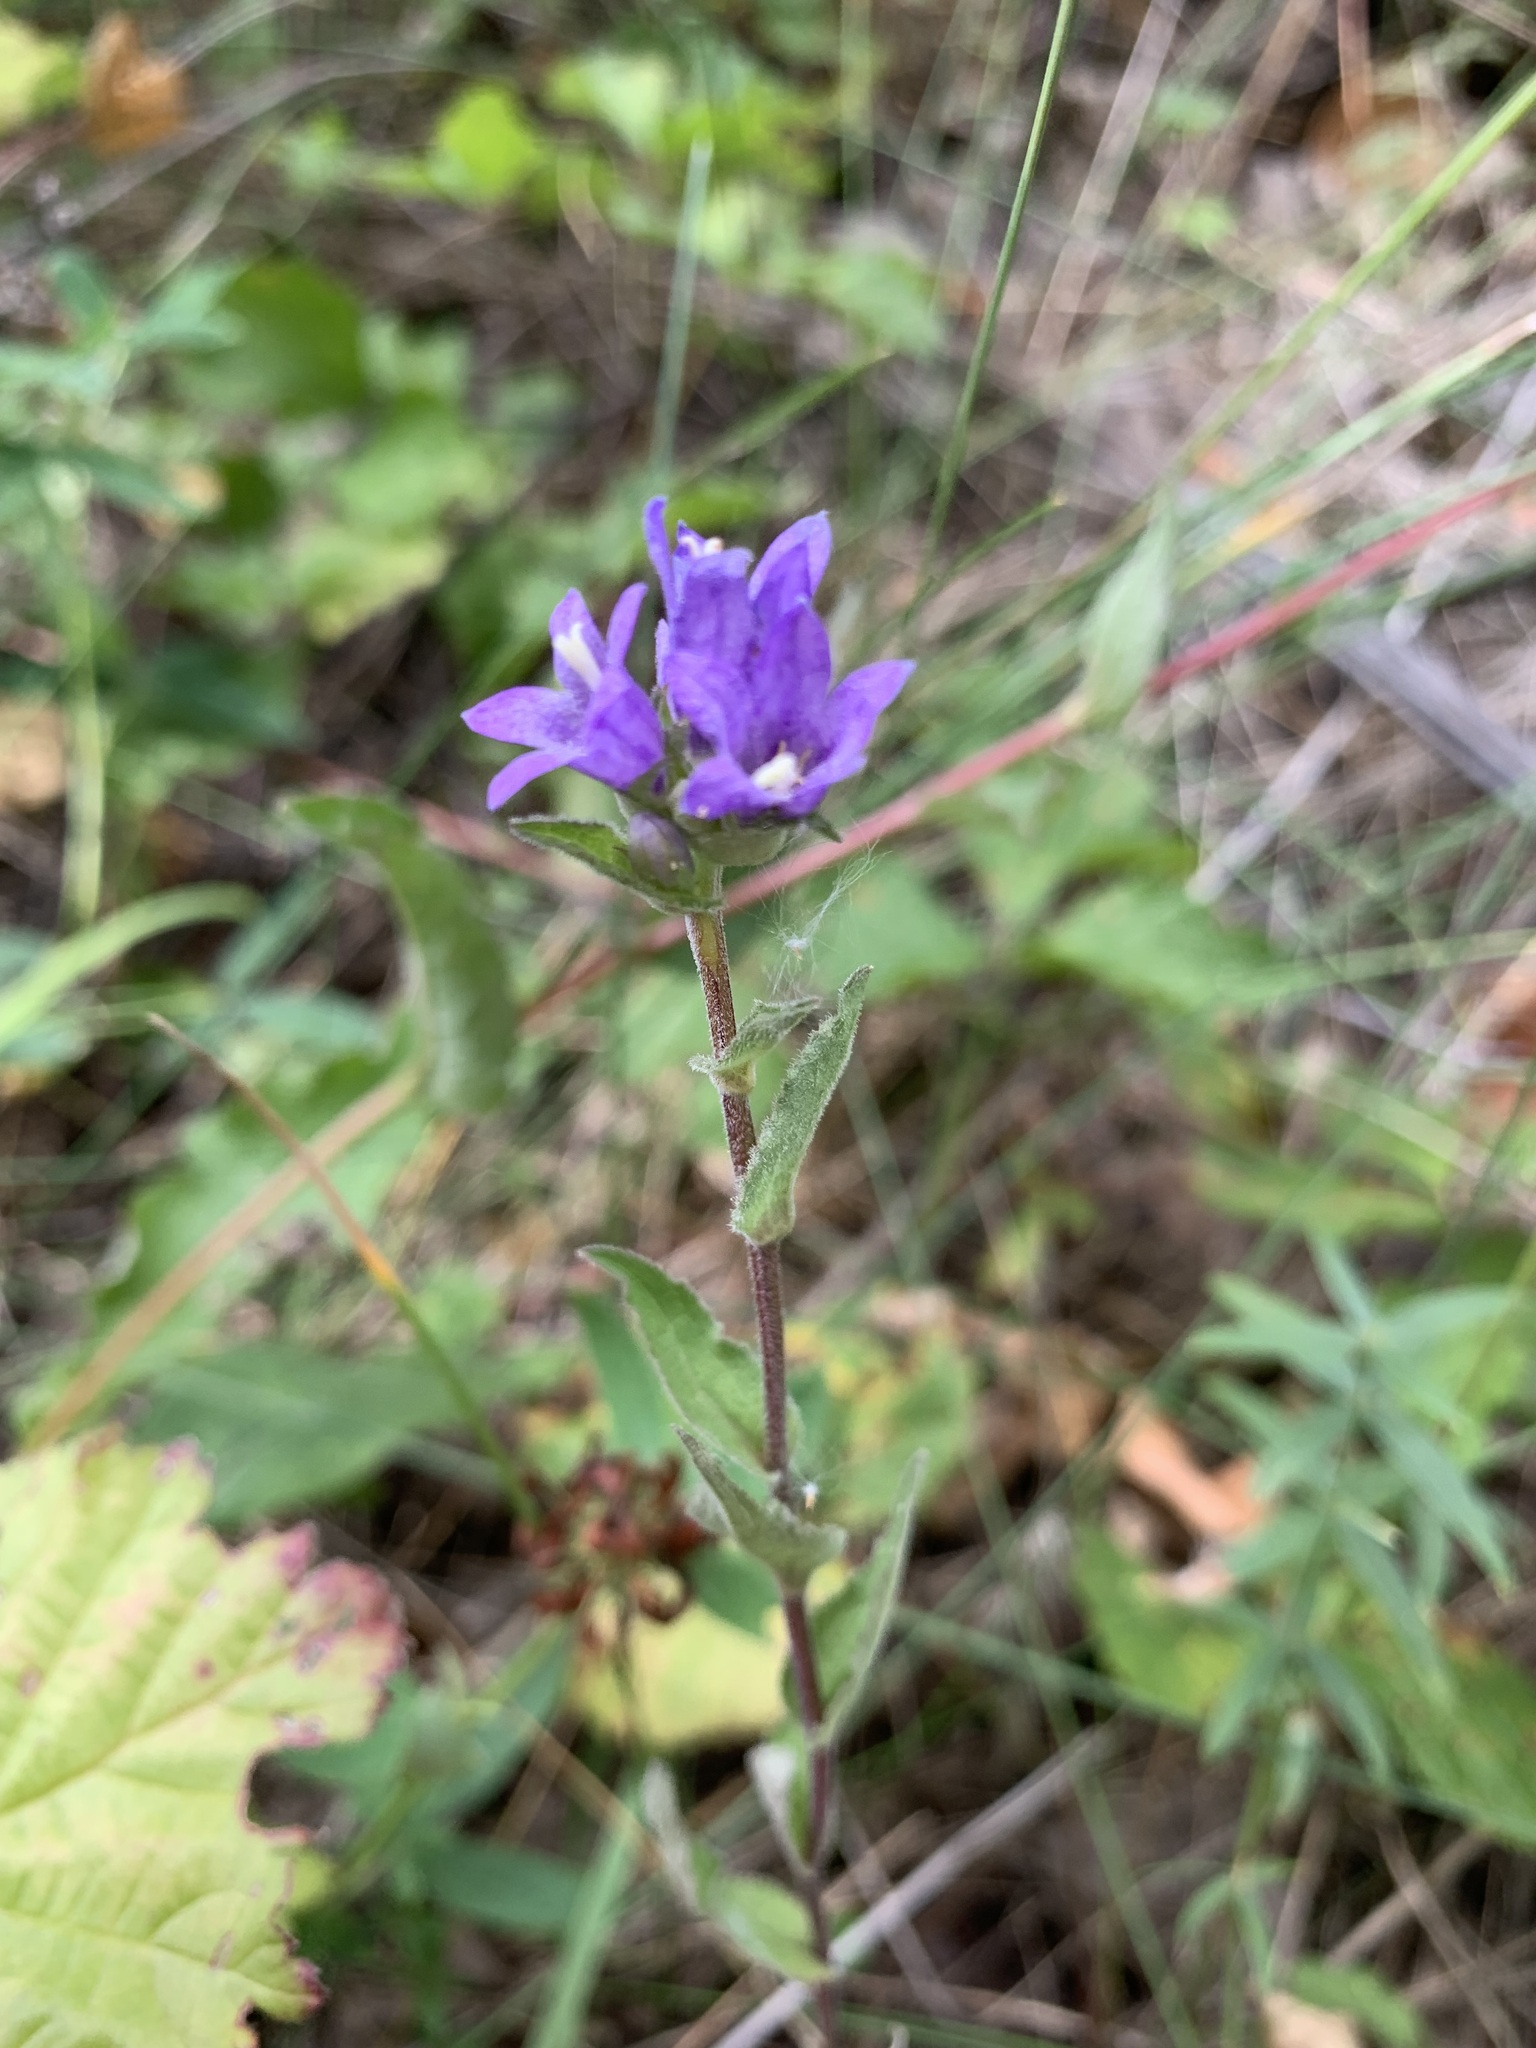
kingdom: Plantae
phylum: Tracheophyta
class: Magnoliopsida
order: Asterales
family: Campanulaceae
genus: Campanula
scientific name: Campanula glomerata
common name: Clustered bellflower
